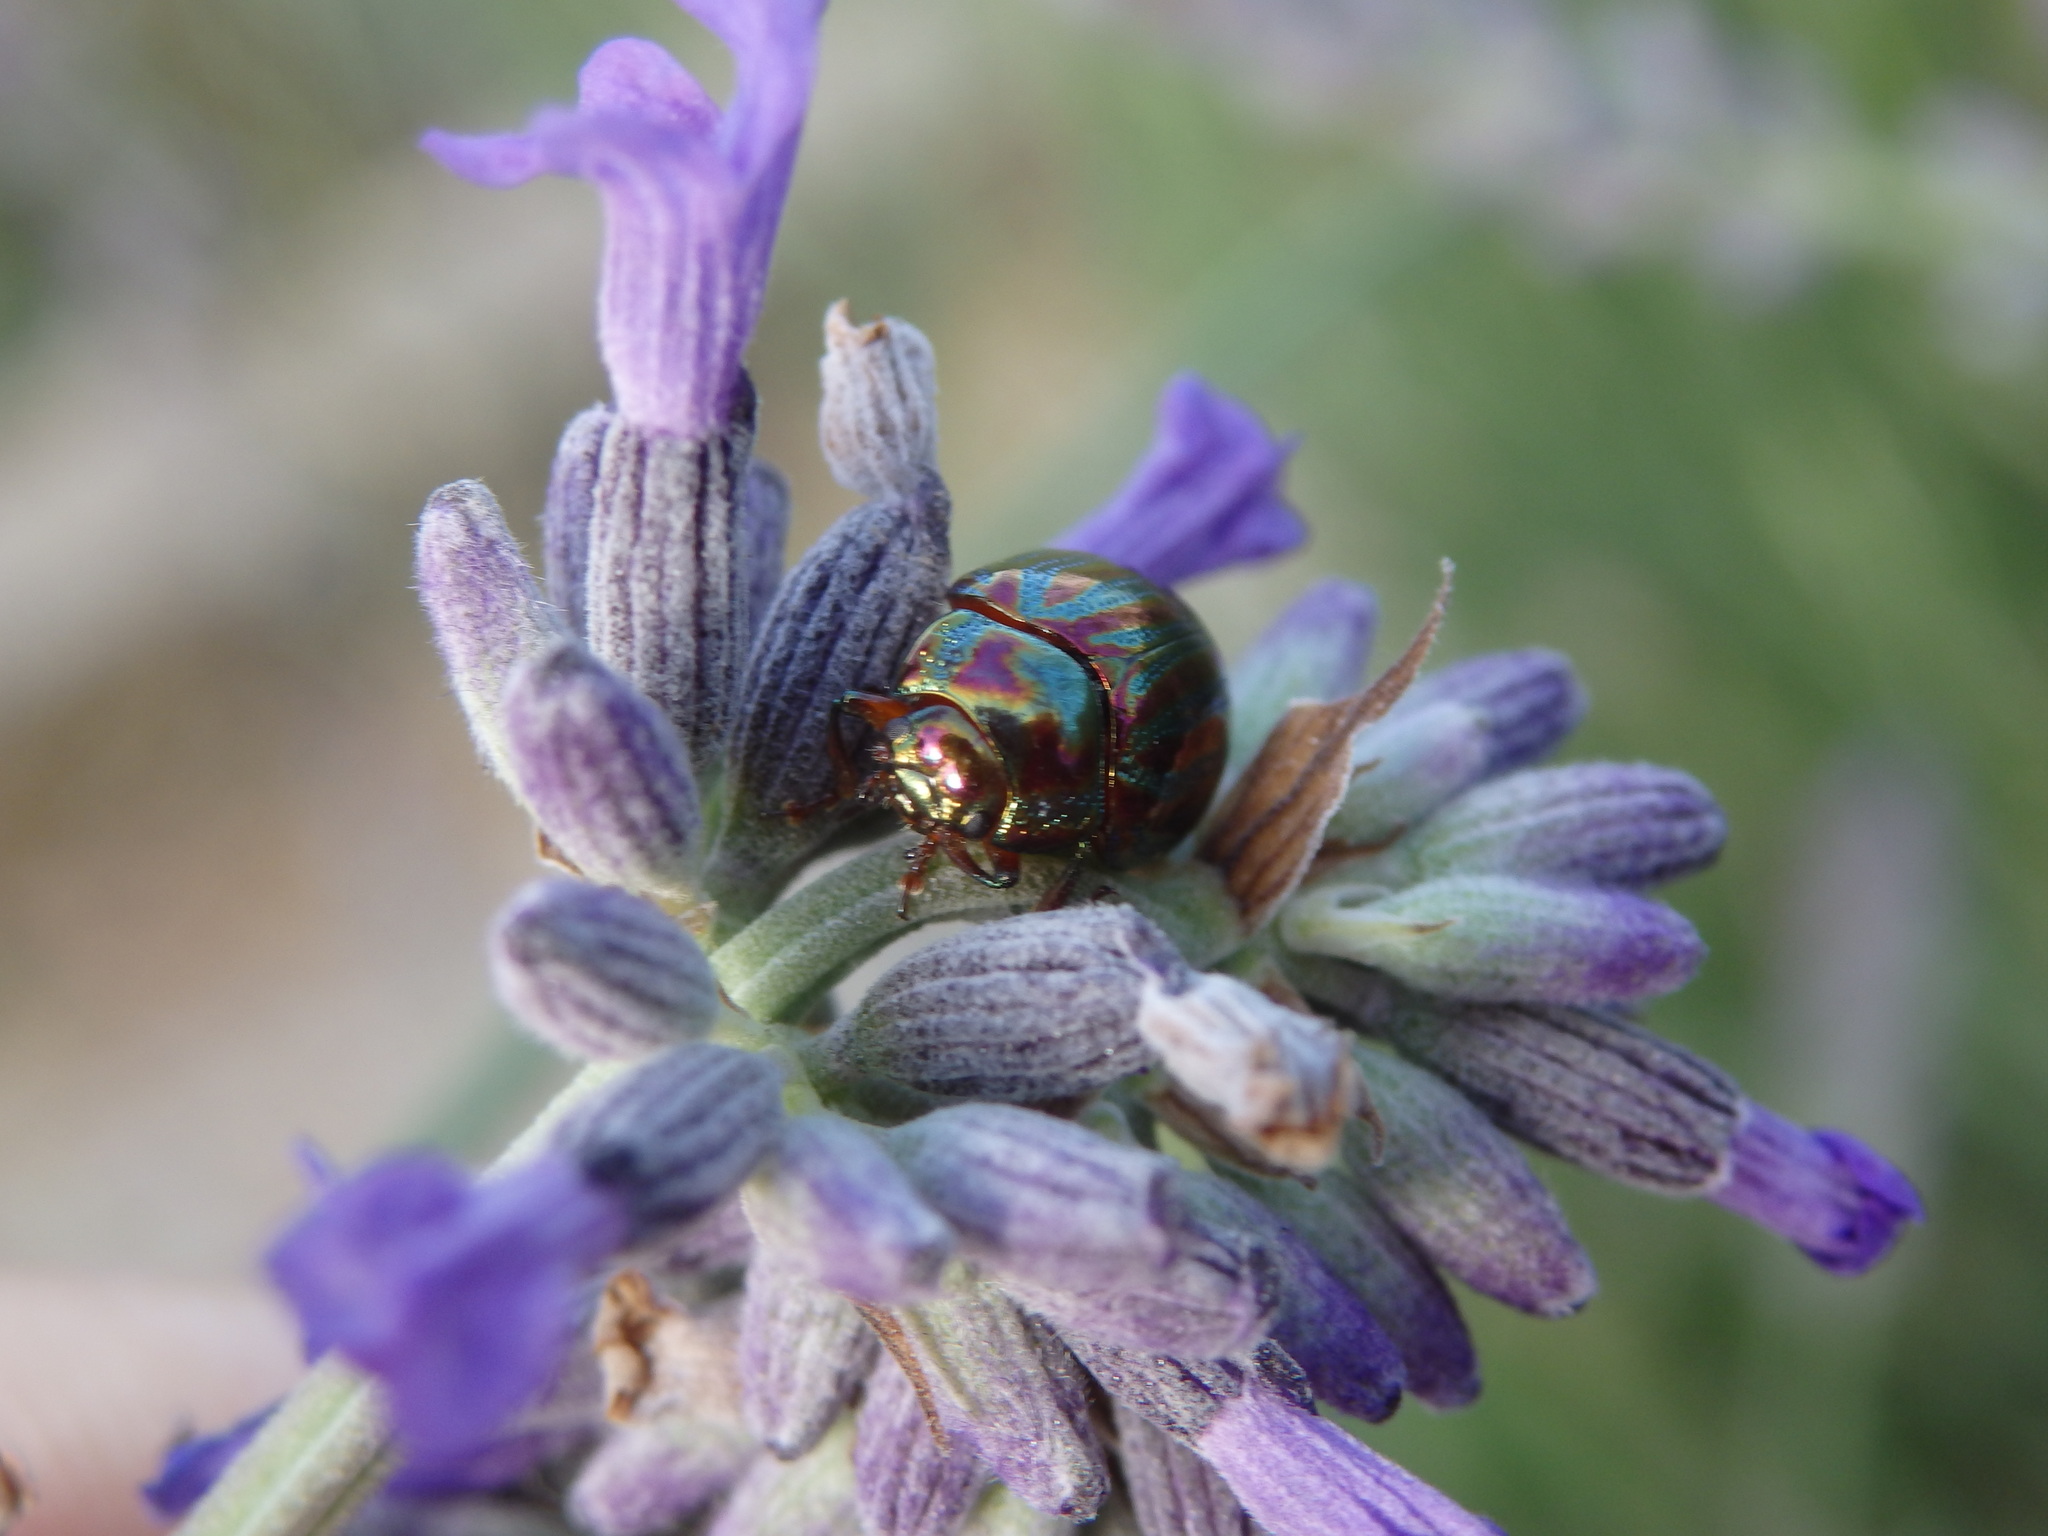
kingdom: Animalia
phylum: Arthropoda
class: Insecta
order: Coleoptera
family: Chrysomelidae
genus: Chrysolina
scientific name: Chrysolina americana
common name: Rosemary beetle
